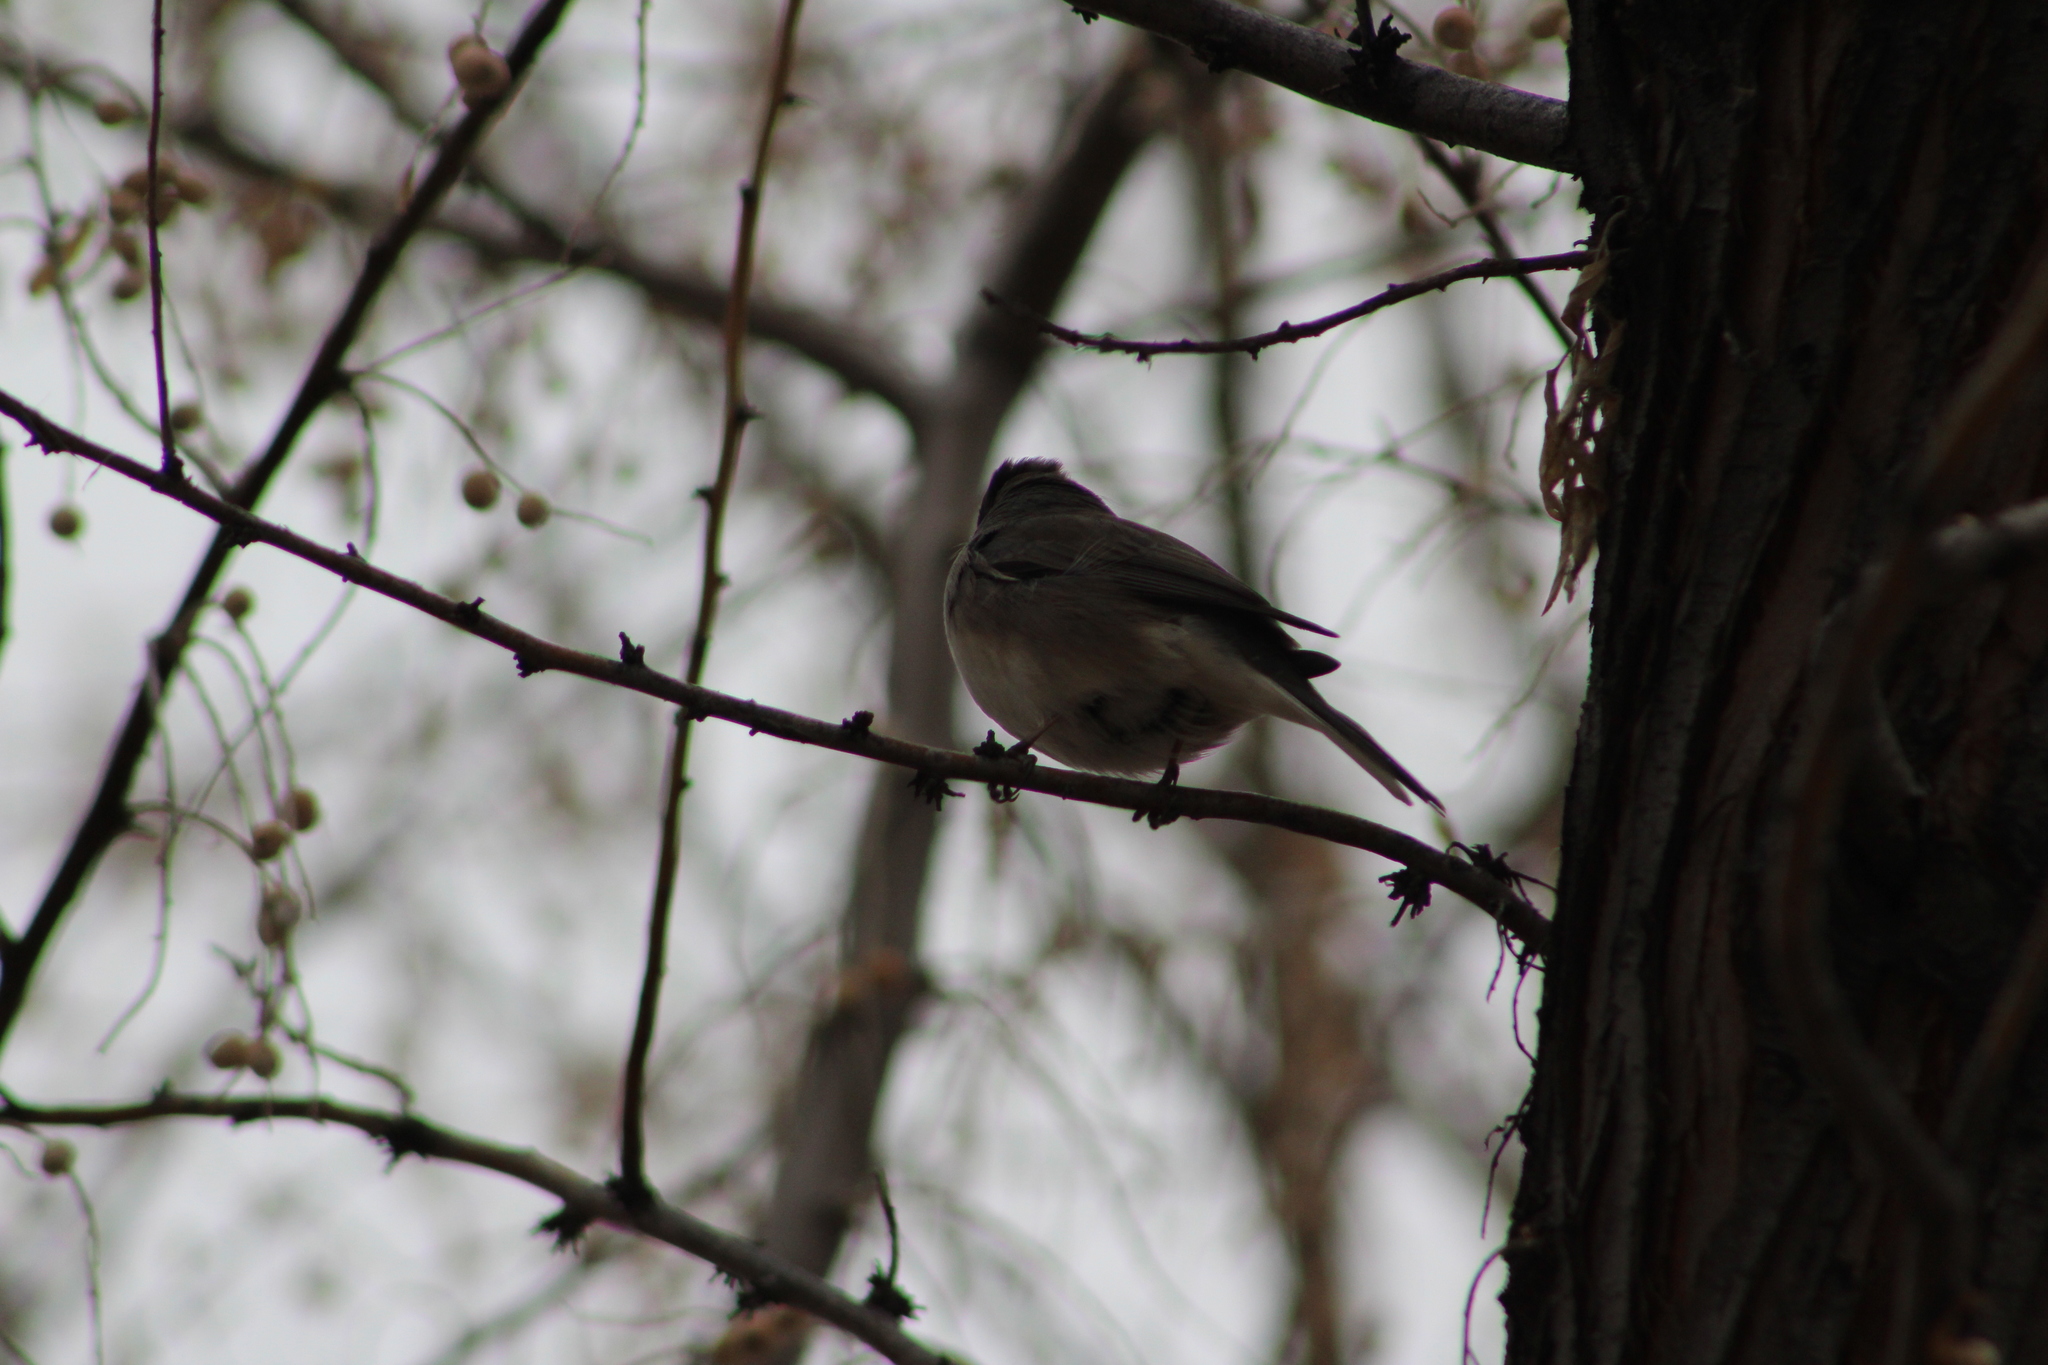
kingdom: Animalia
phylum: Chordata
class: Aves
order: Passeriformes
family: Passerellidae
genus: Junco
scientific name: Junco hyemalis
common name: Dark-eyed junco
